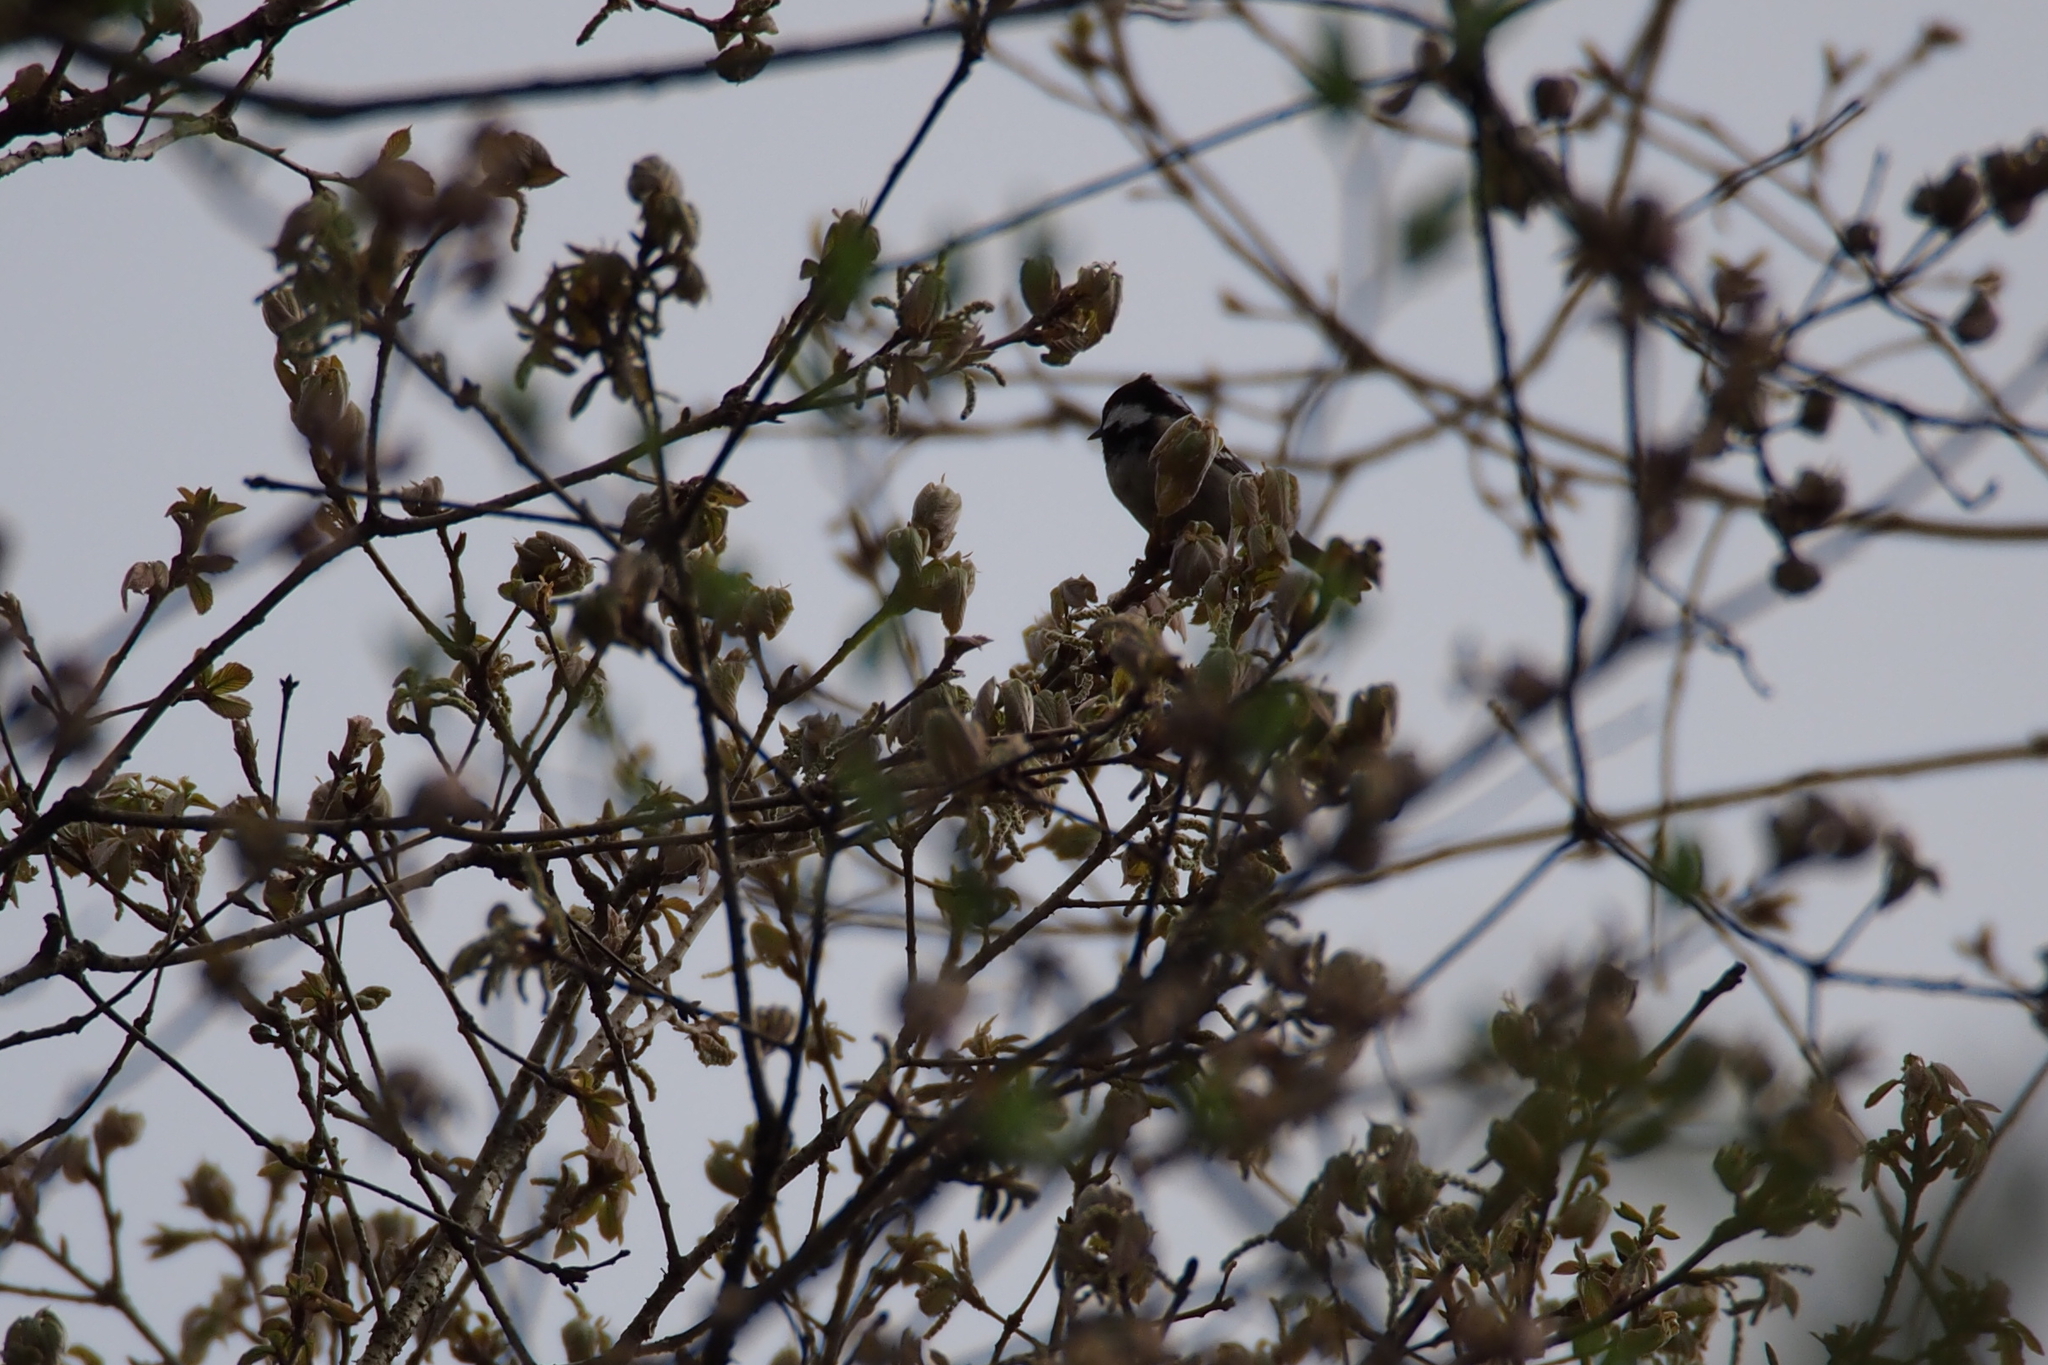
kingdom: Animalia
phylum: Chordata
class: Aves
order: Passeriformes
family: Paridae
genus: Periparus
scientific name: Periparus ater
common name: Coal tit
